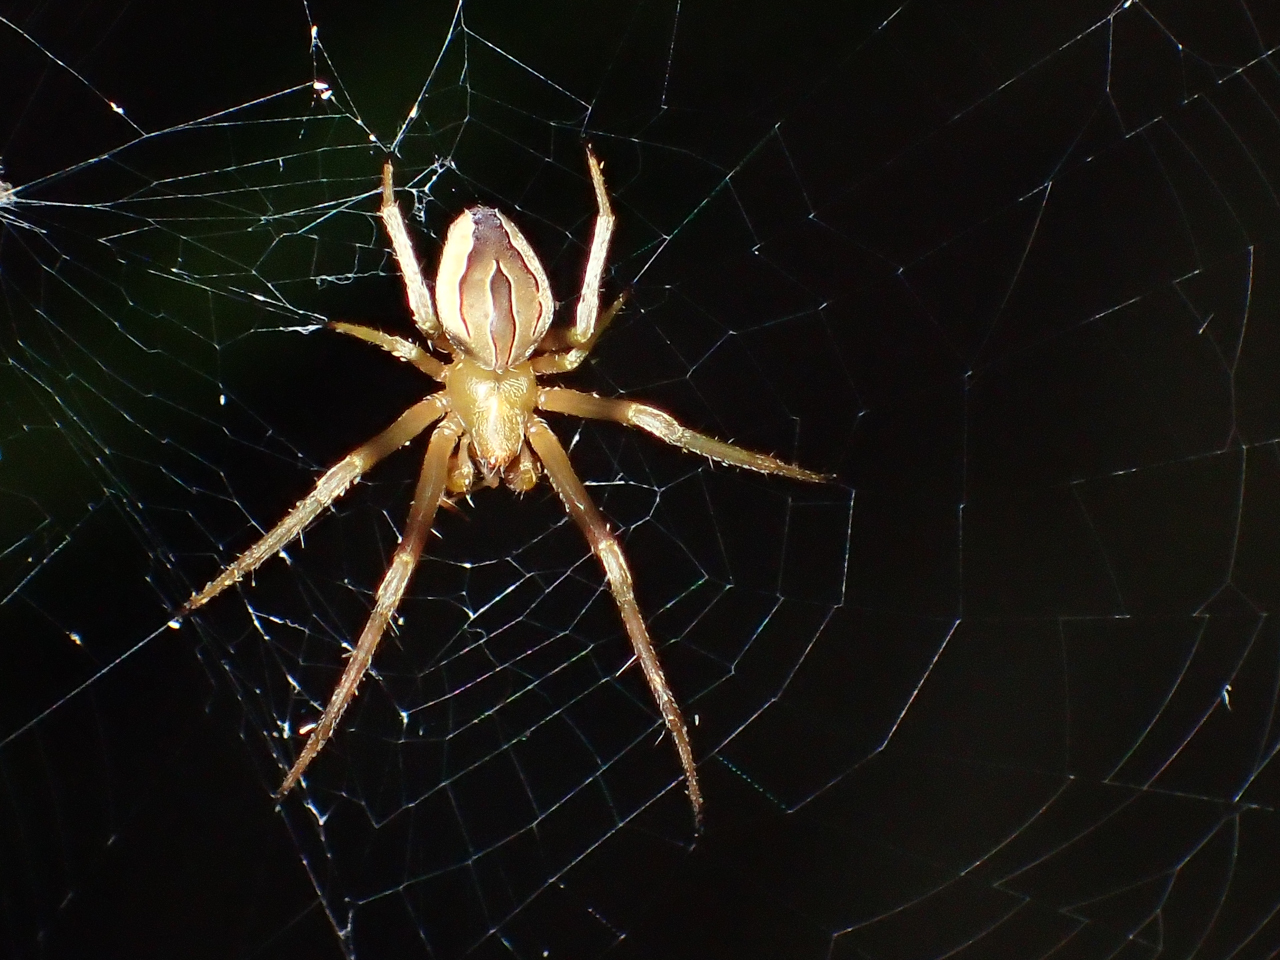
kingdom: Animalia
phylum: Arthropoda
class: Arachnida
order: Araneae
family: Araneidae
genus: Acacesia
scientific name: Acacesia hamata
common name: Orb weavers
